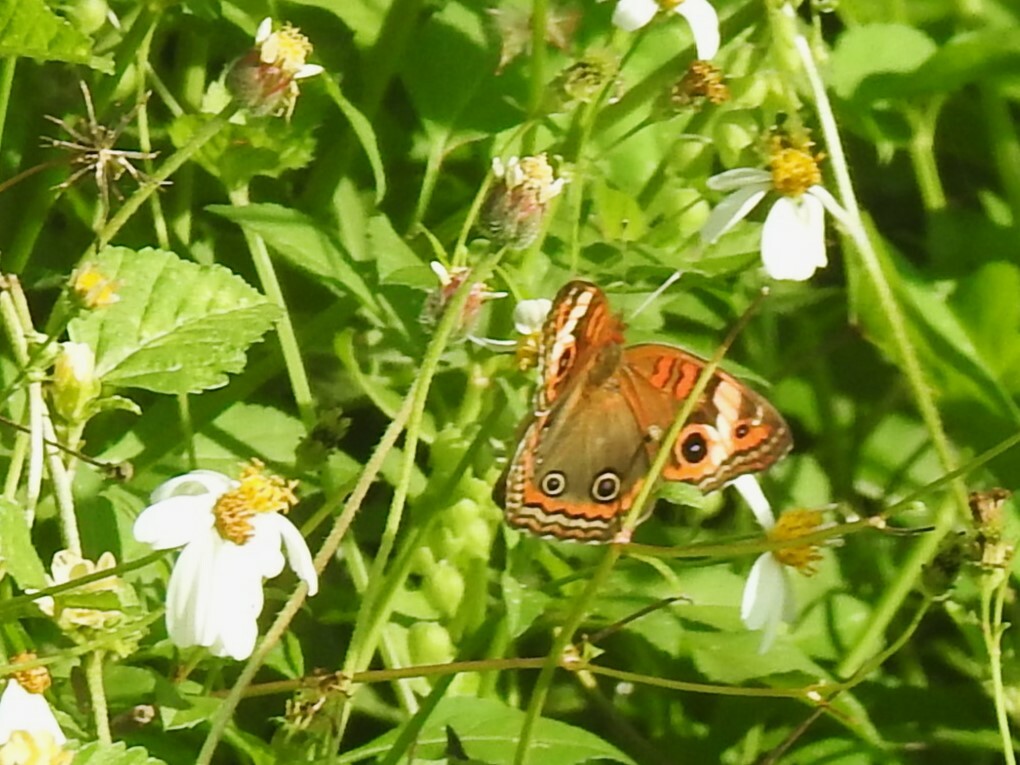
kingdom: Animalia
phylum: Arthropoda
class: Insecta
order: Lepidoptera
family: Nymphalidae
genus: Junonia
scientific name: Junonia lavinia
